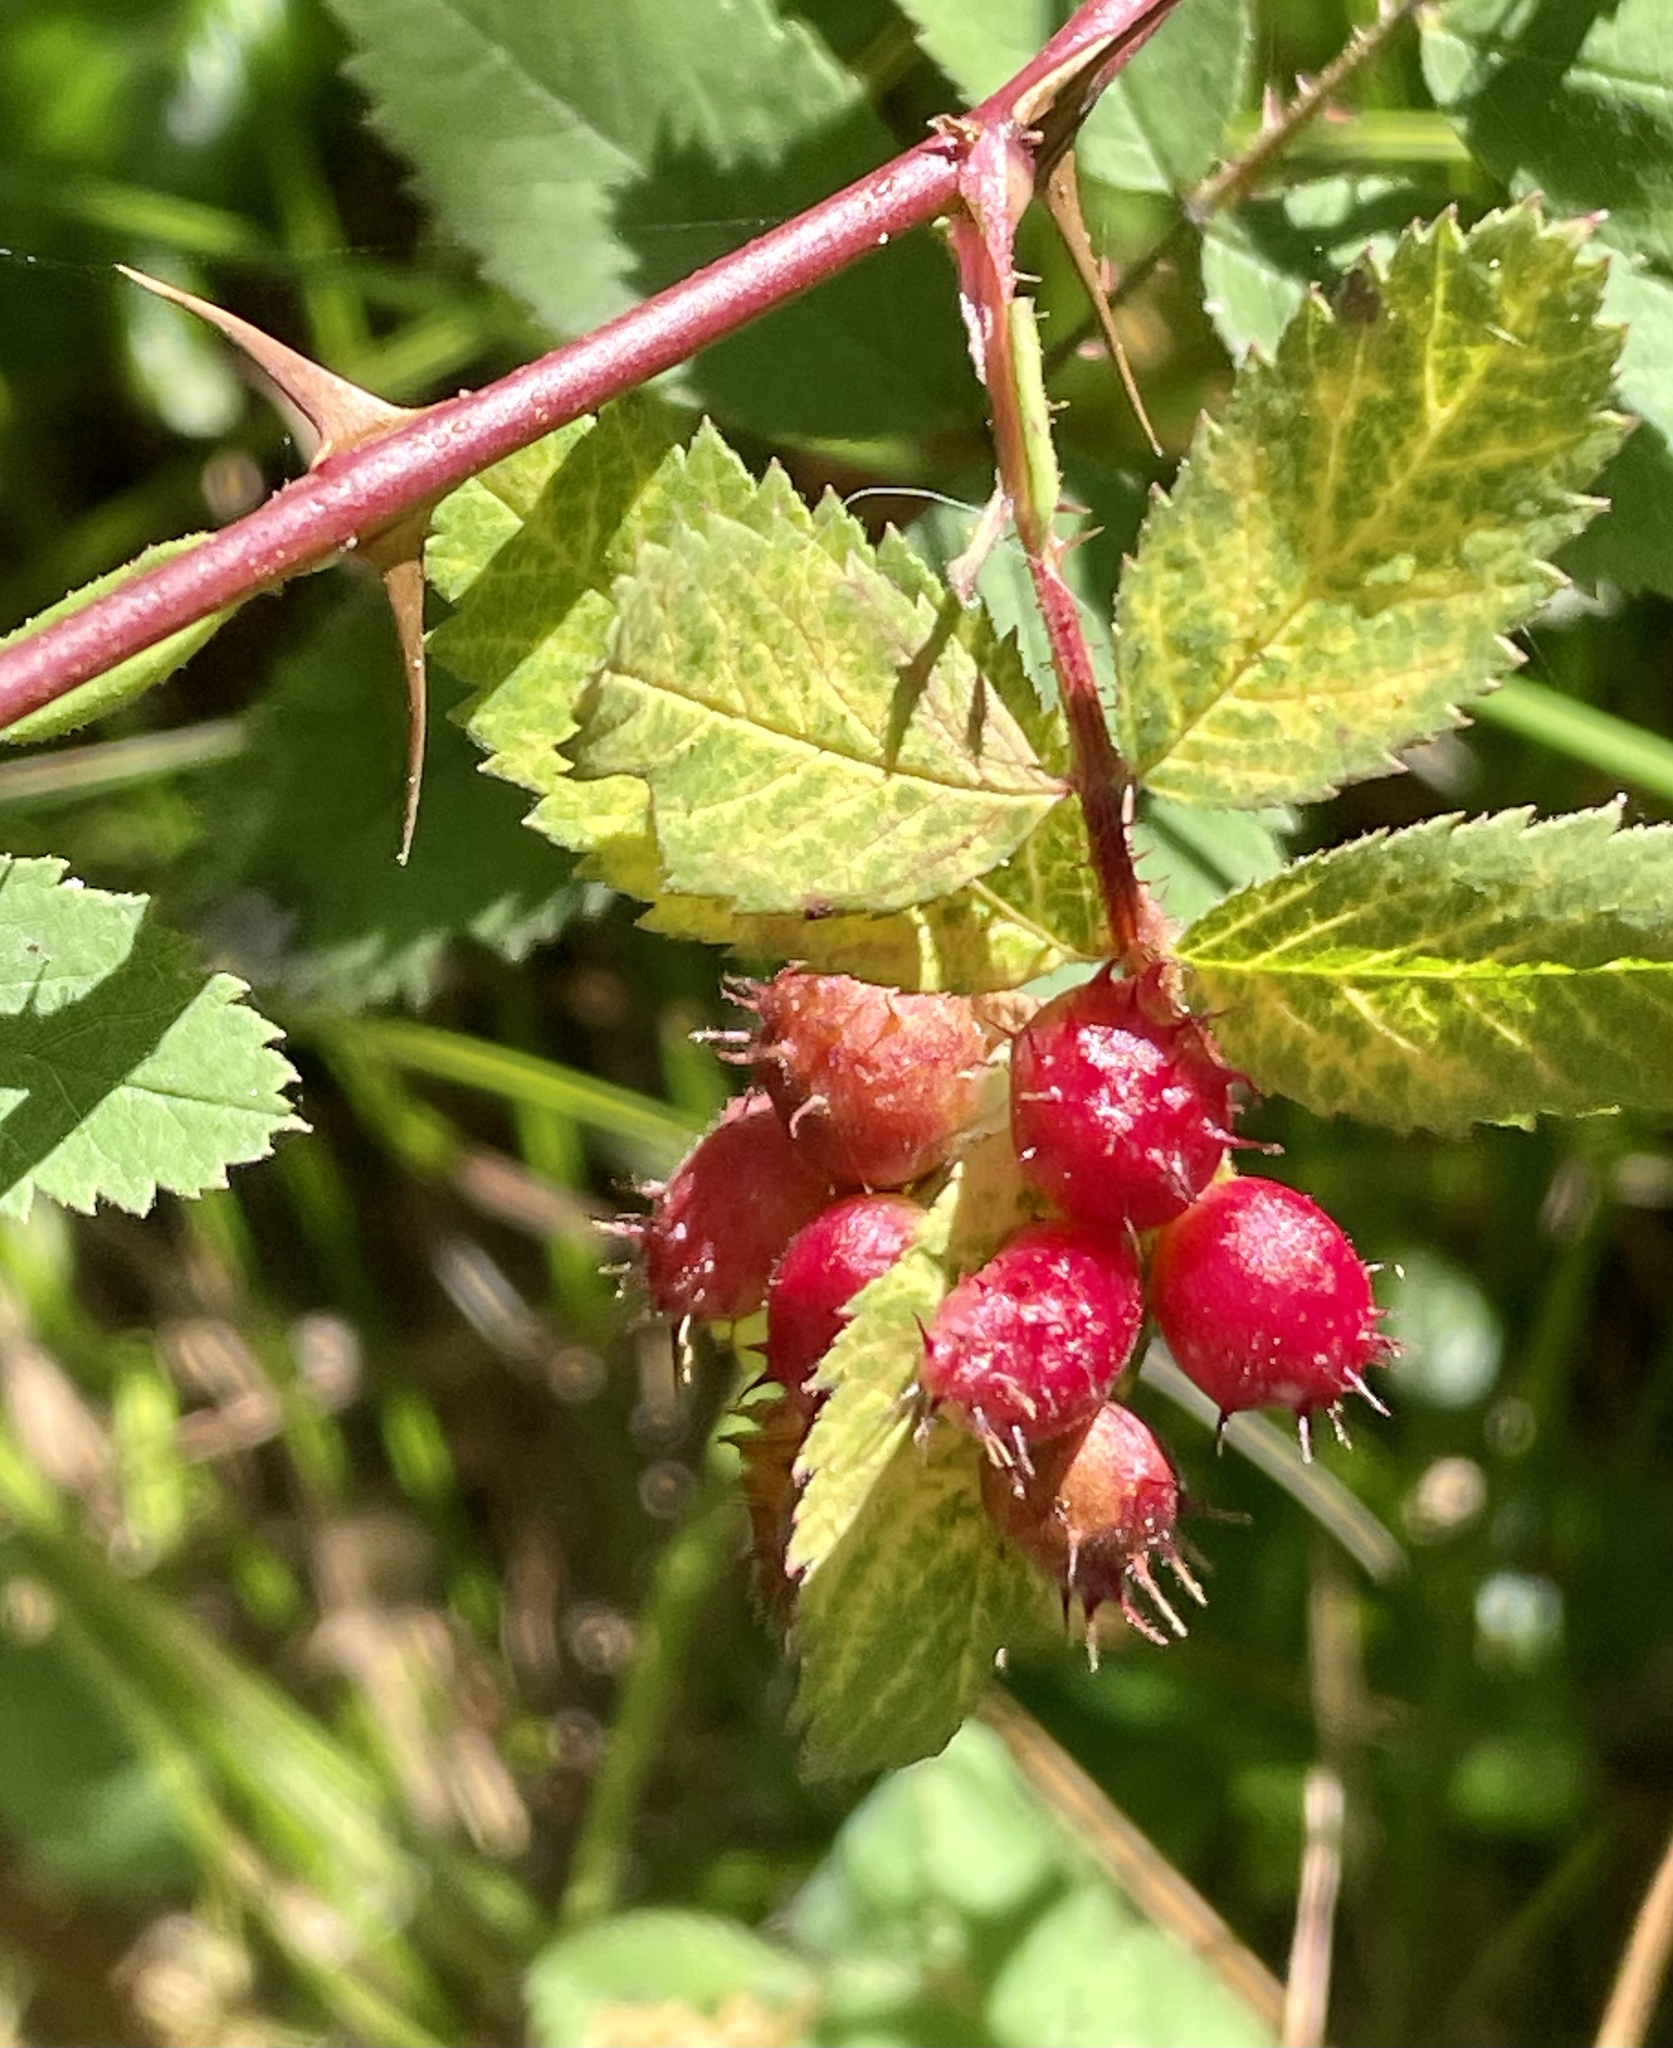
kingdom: Animalia
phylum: Arthropoda
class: Insecta
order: Hymenoptera
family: Cynipidae
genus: Diplolepis
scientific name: Diplolepis polita
